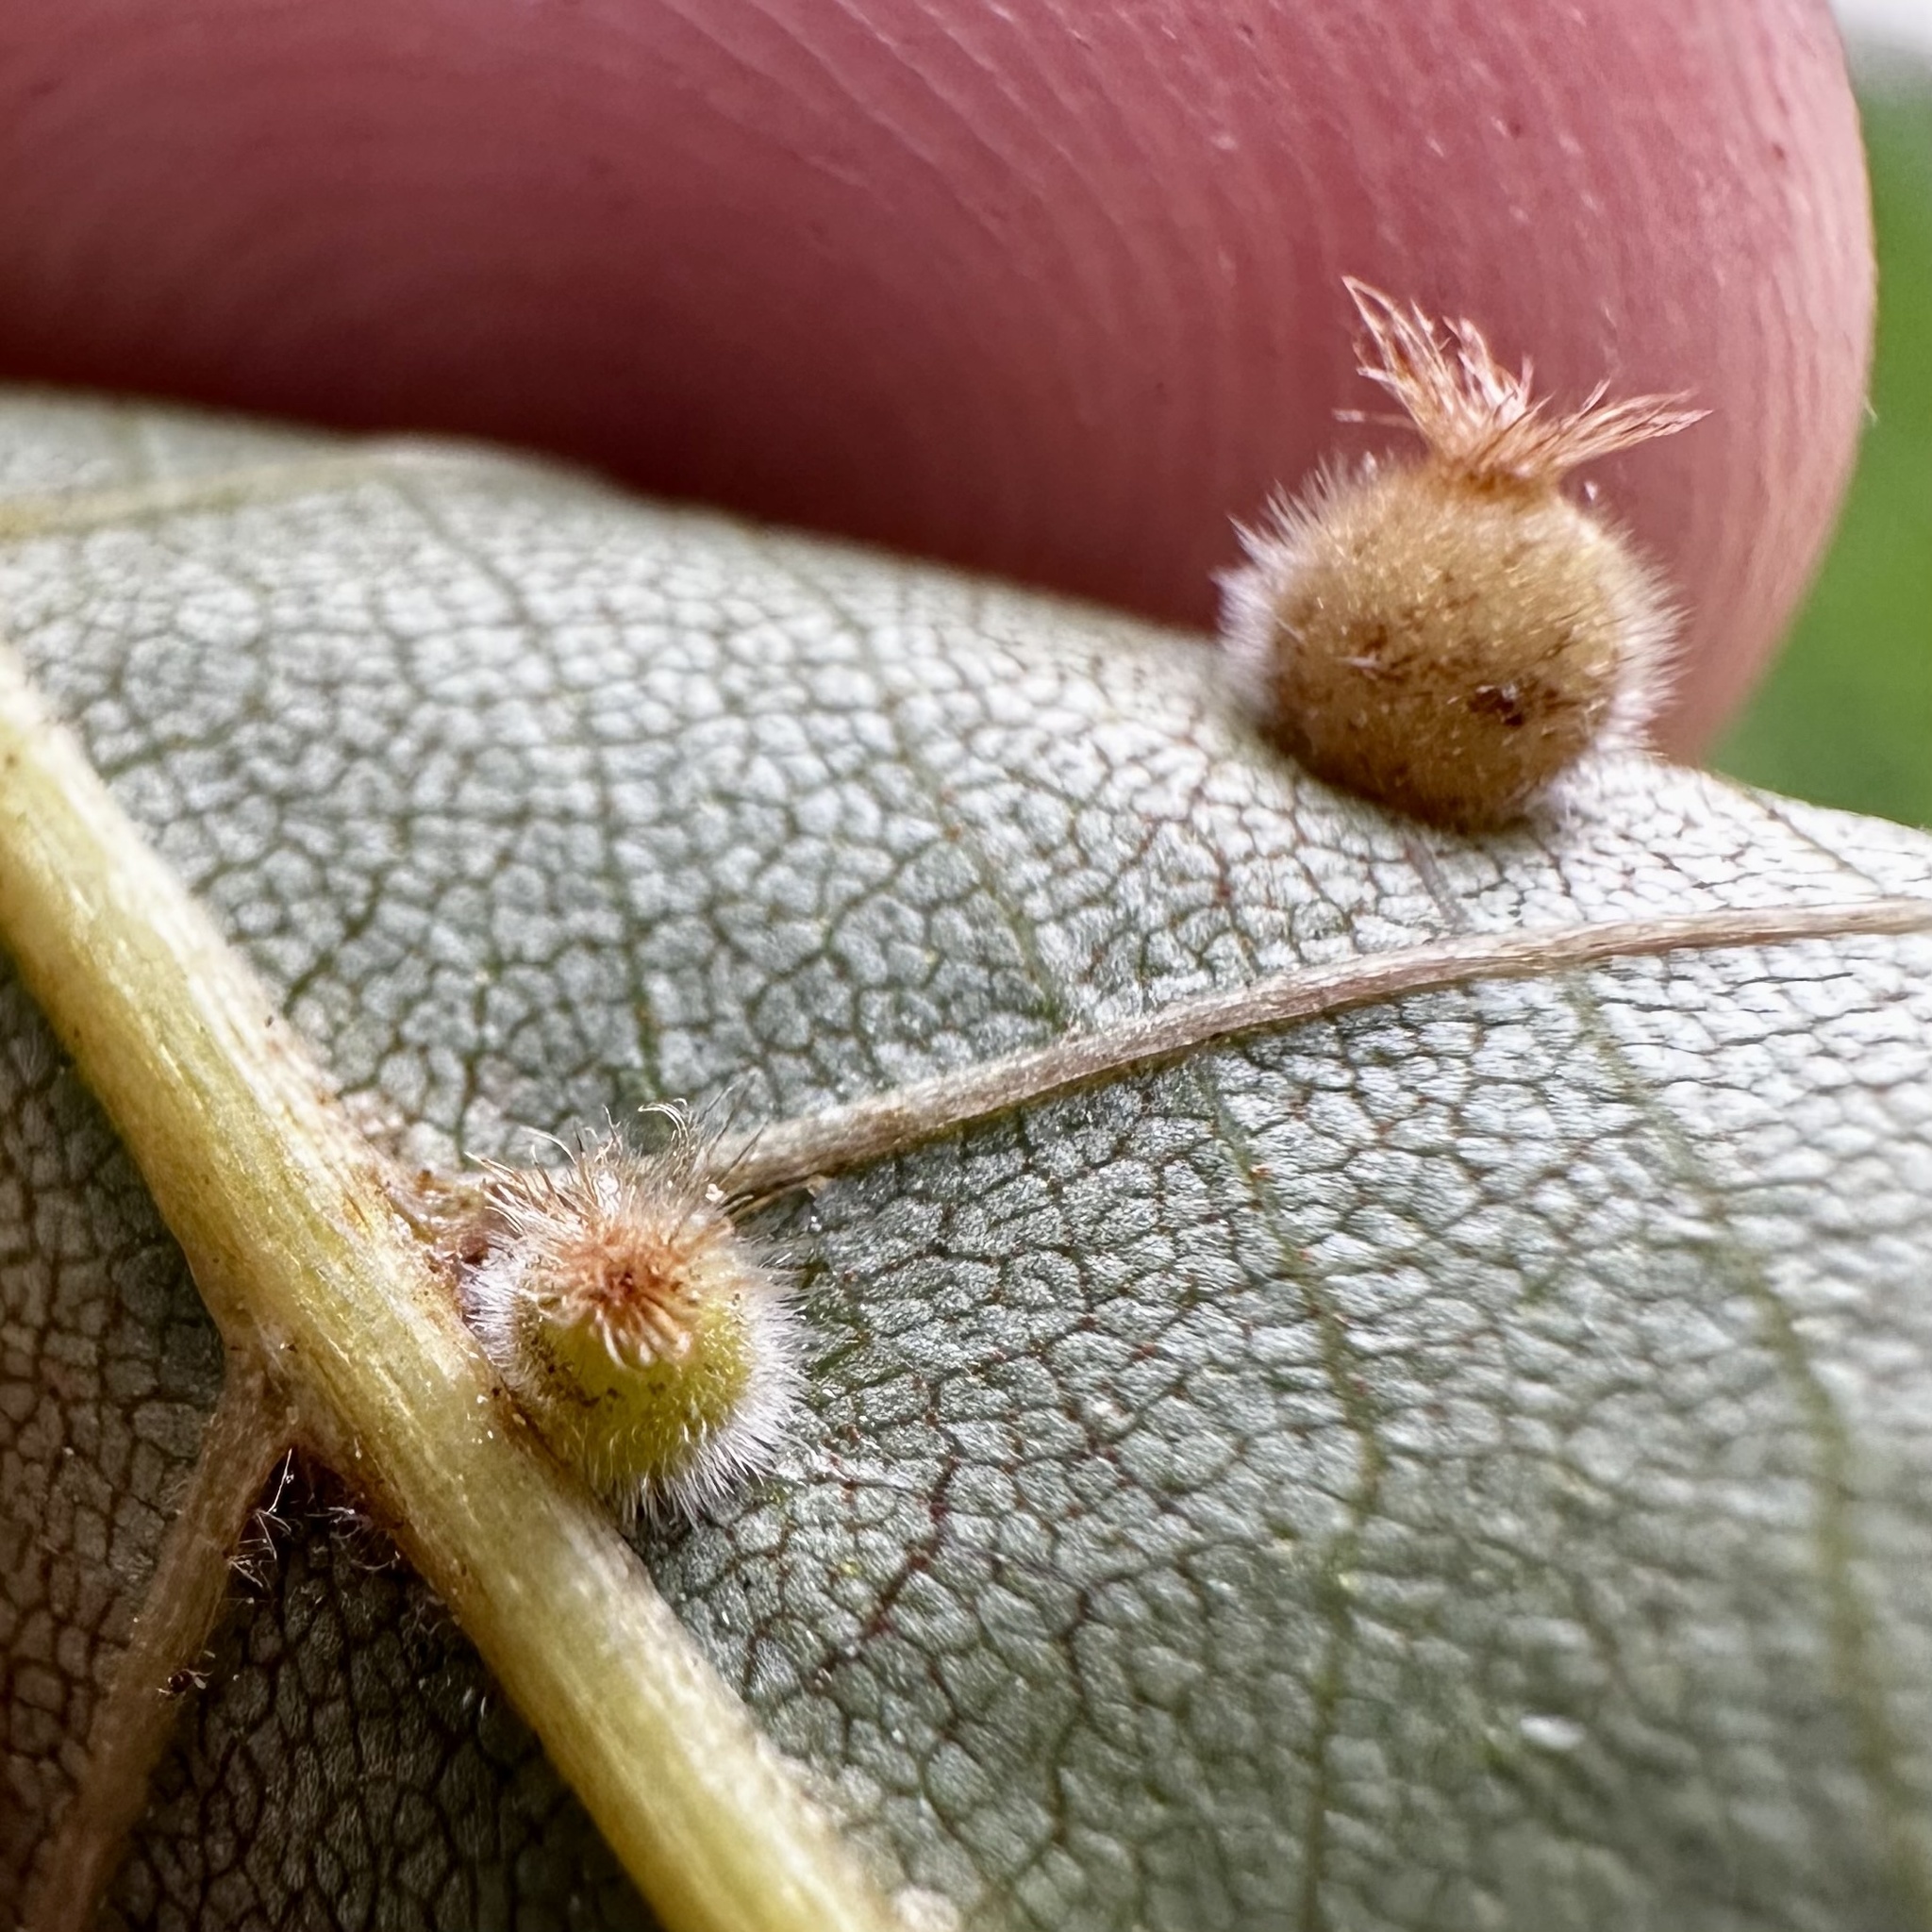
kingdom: Animalia
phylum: Arthropoda
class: Insecta
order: Diptera
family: Cecidomyiidae
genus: Caryomyia
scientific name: Caryomyia hirtidolium
